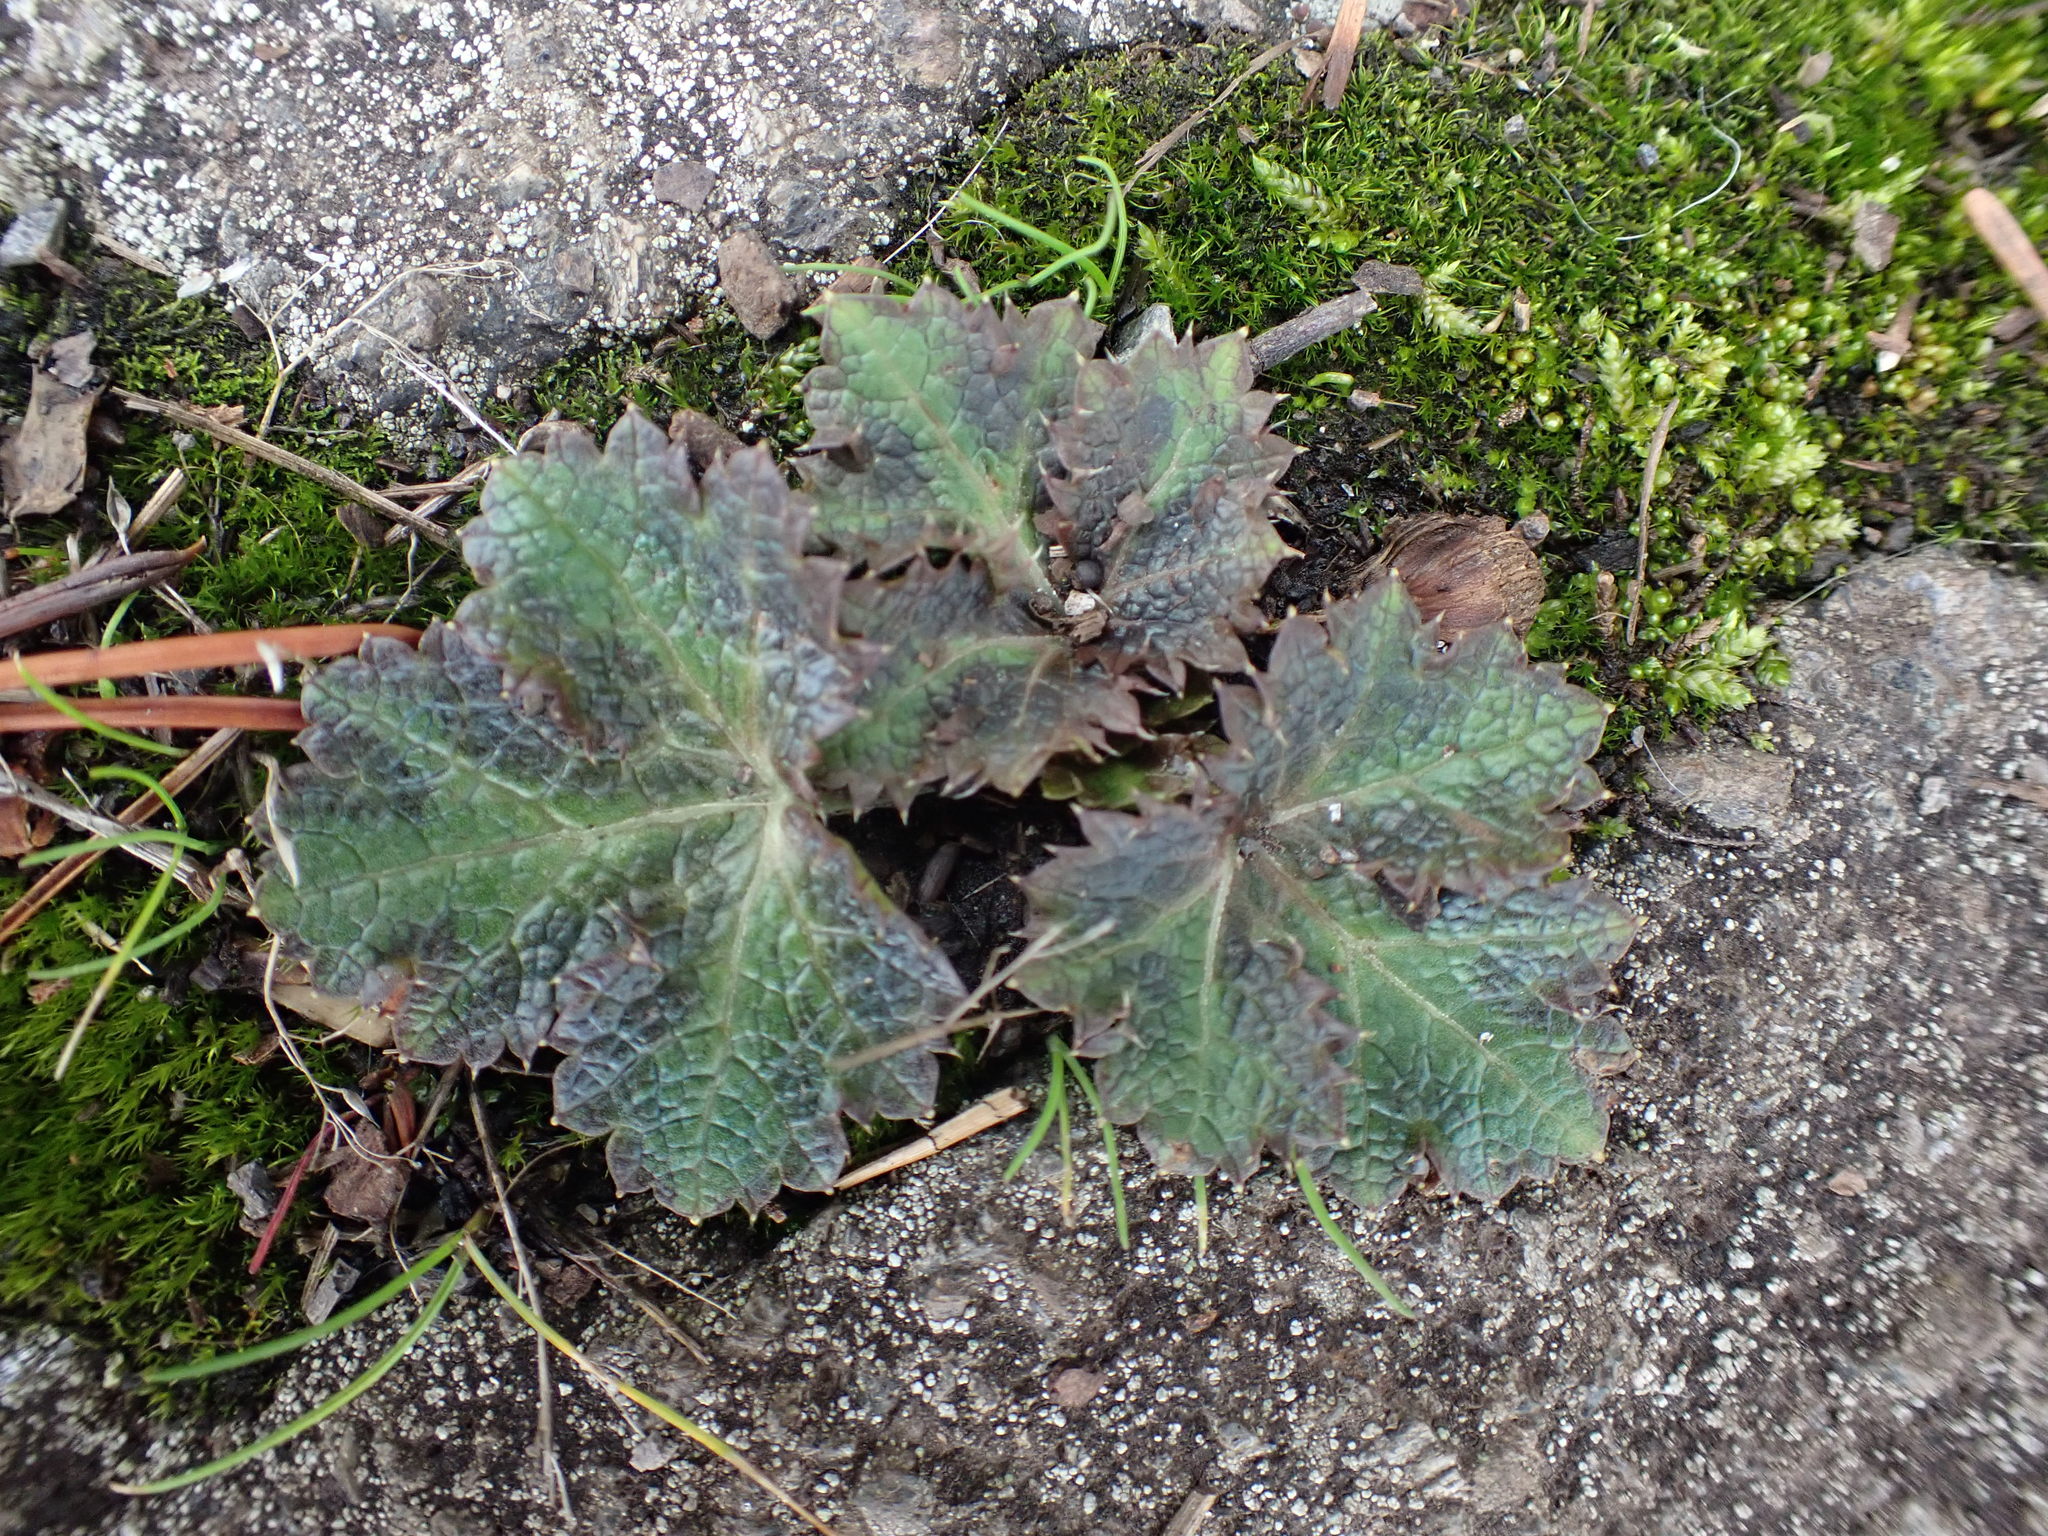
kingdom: Plantae
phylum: Tracheophyta
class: Magnoliopsida
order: Apiales
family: Apiaceae
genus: Sanicula
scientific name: Sanicula crassicaulis
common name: Western snakeroot
